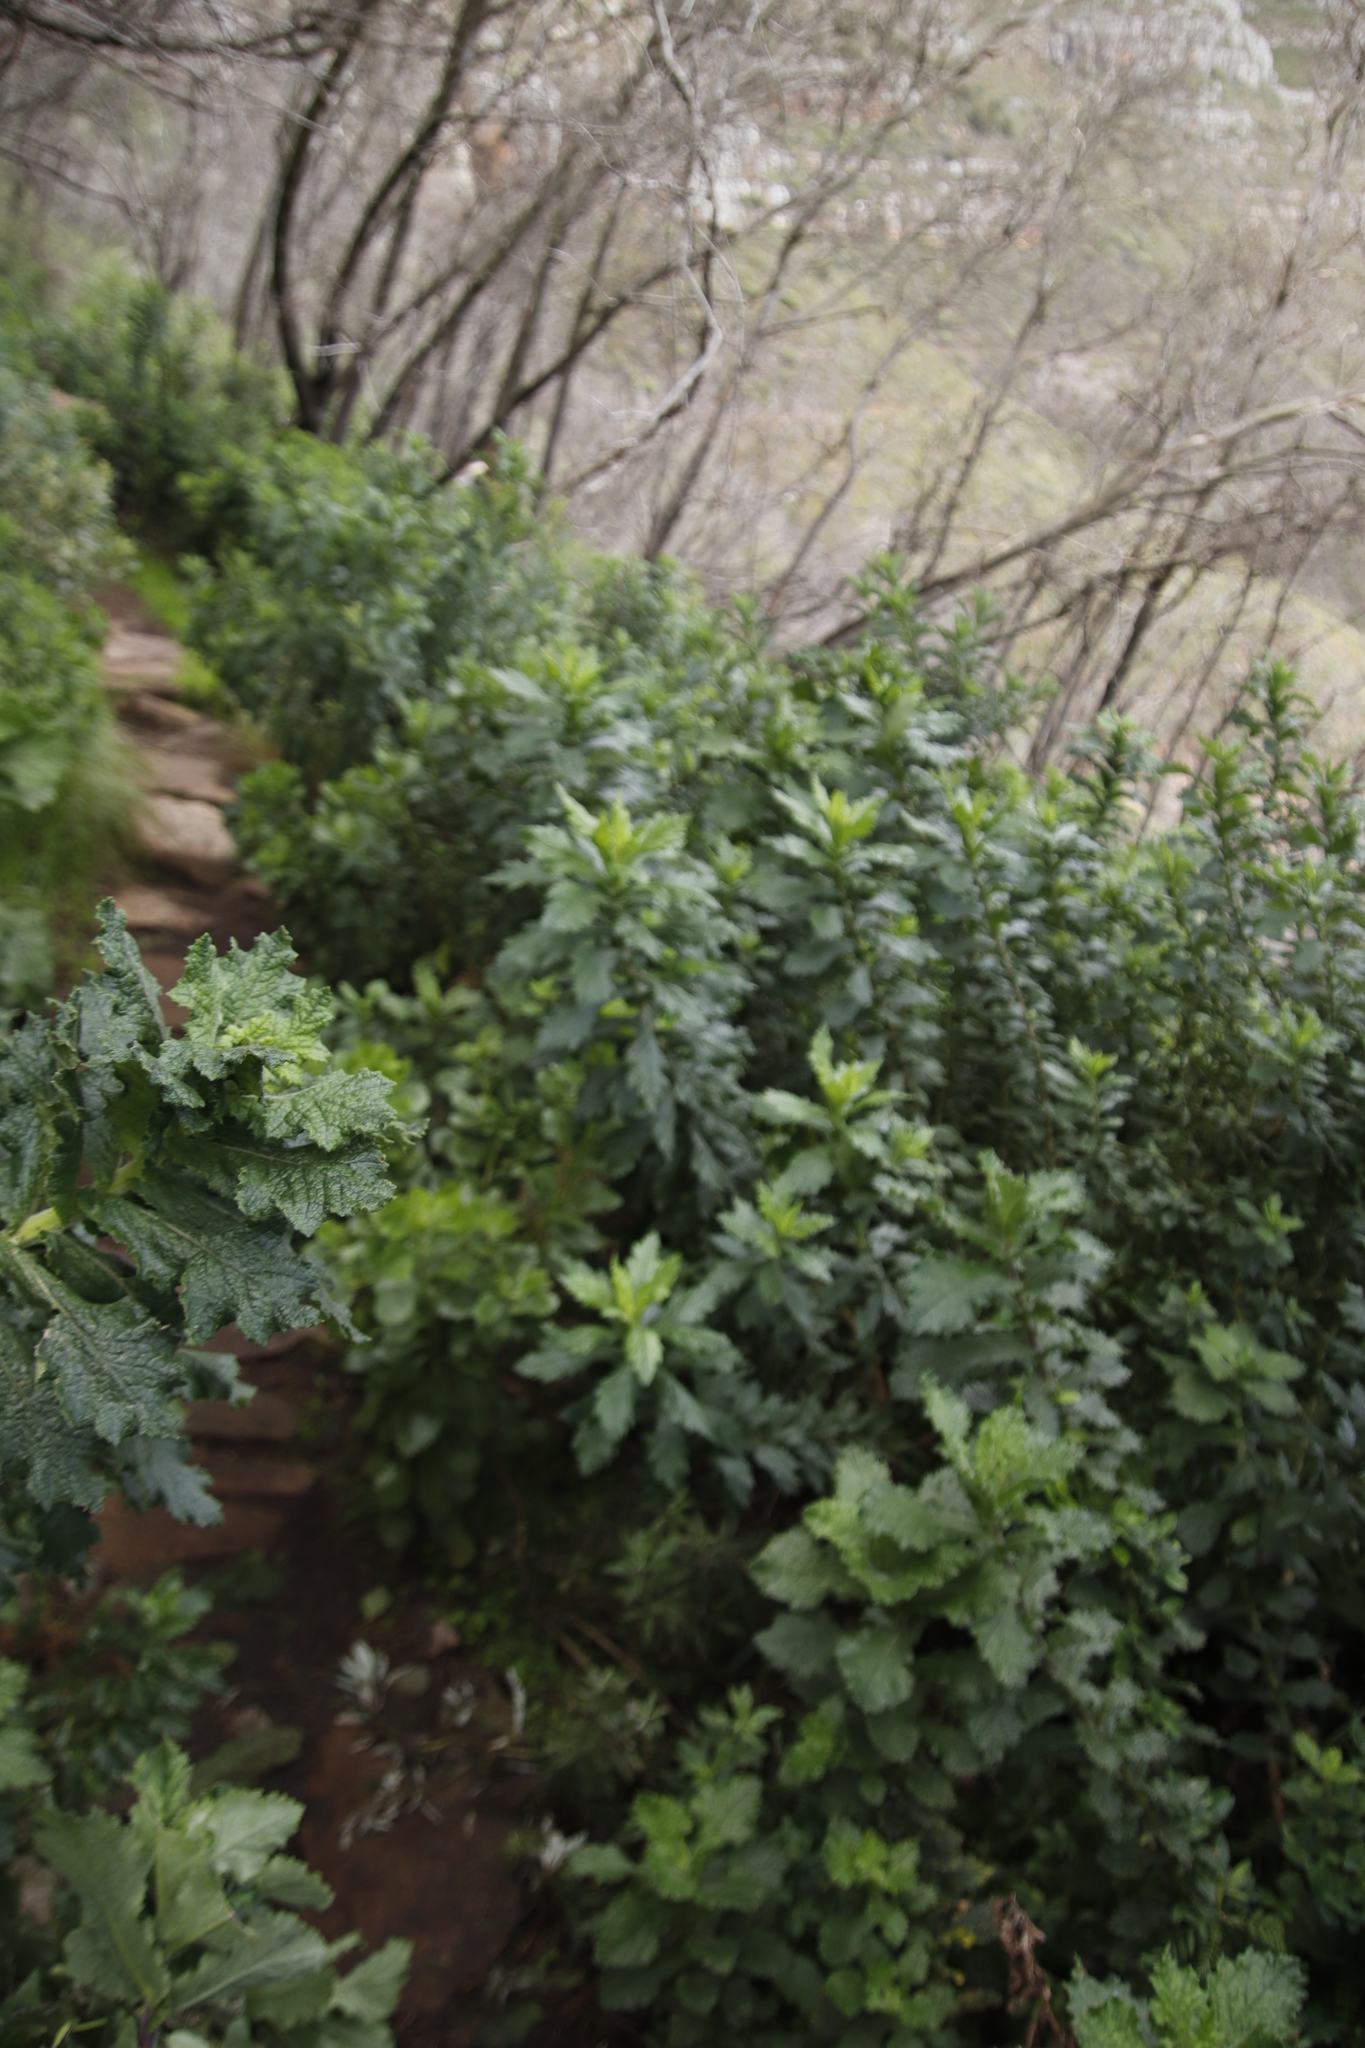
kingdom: Plantae
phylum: Tracheophyta
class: Magnoliopsida
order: Asterales
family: Asteraceae
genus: Senecio
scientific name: Senecio rigidus
